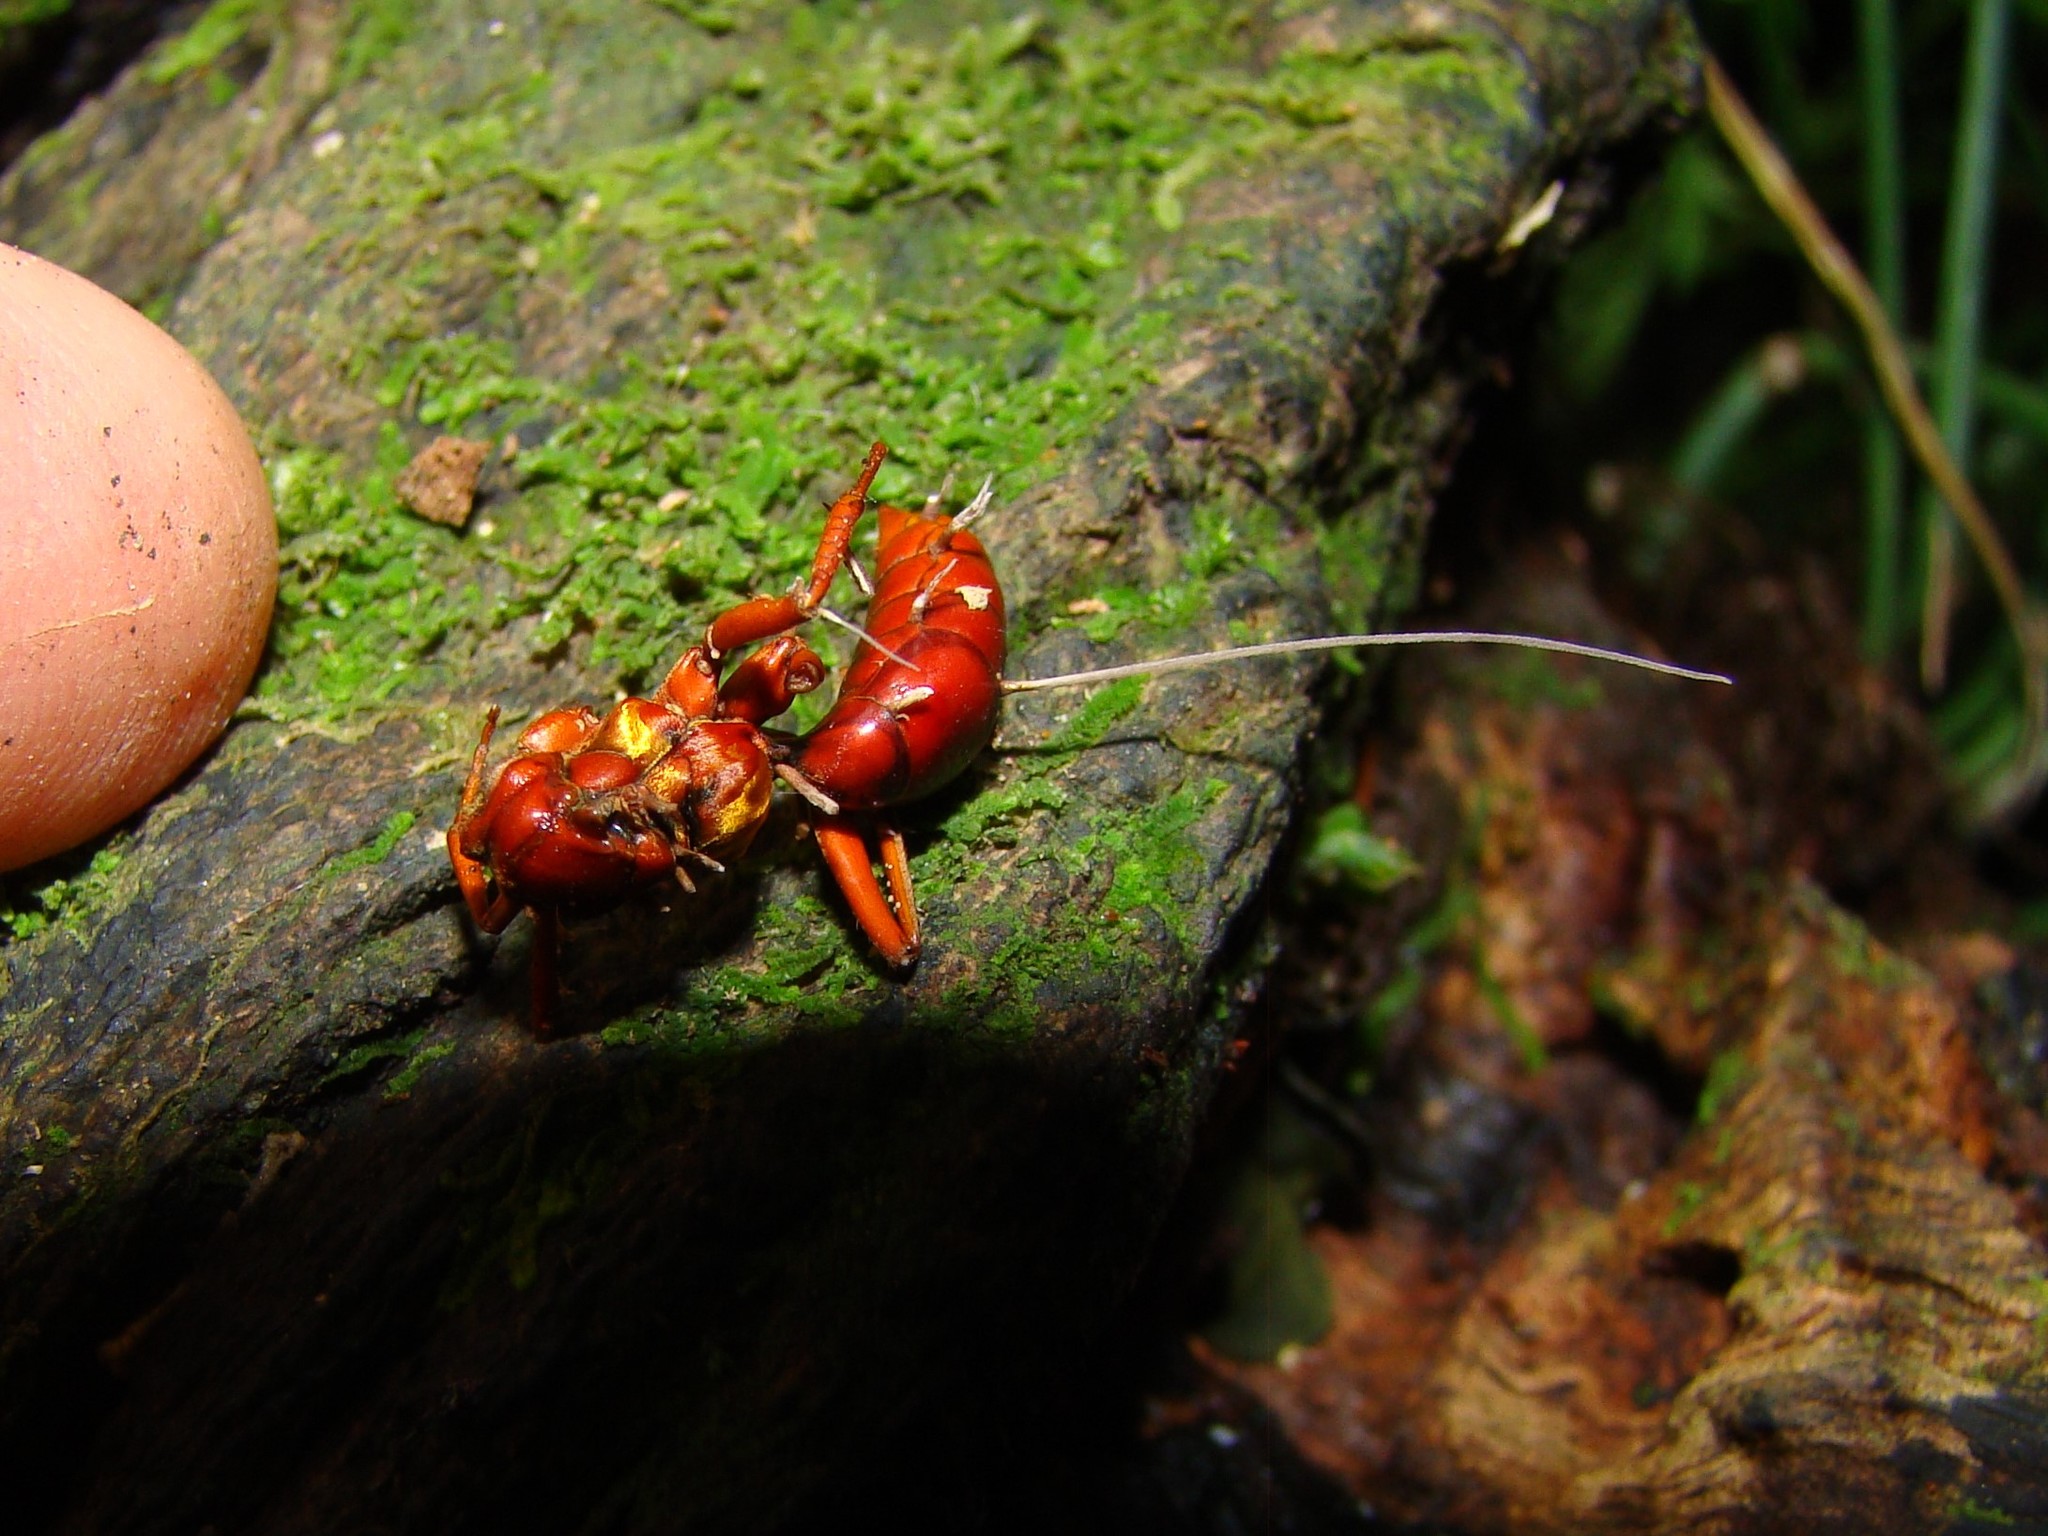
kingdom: Animalia
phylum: Arthropoda
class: Insecta
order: Hymenoptera
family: Pompilidae
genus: Sphictostethus
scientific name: Sphictostethus nitidus
